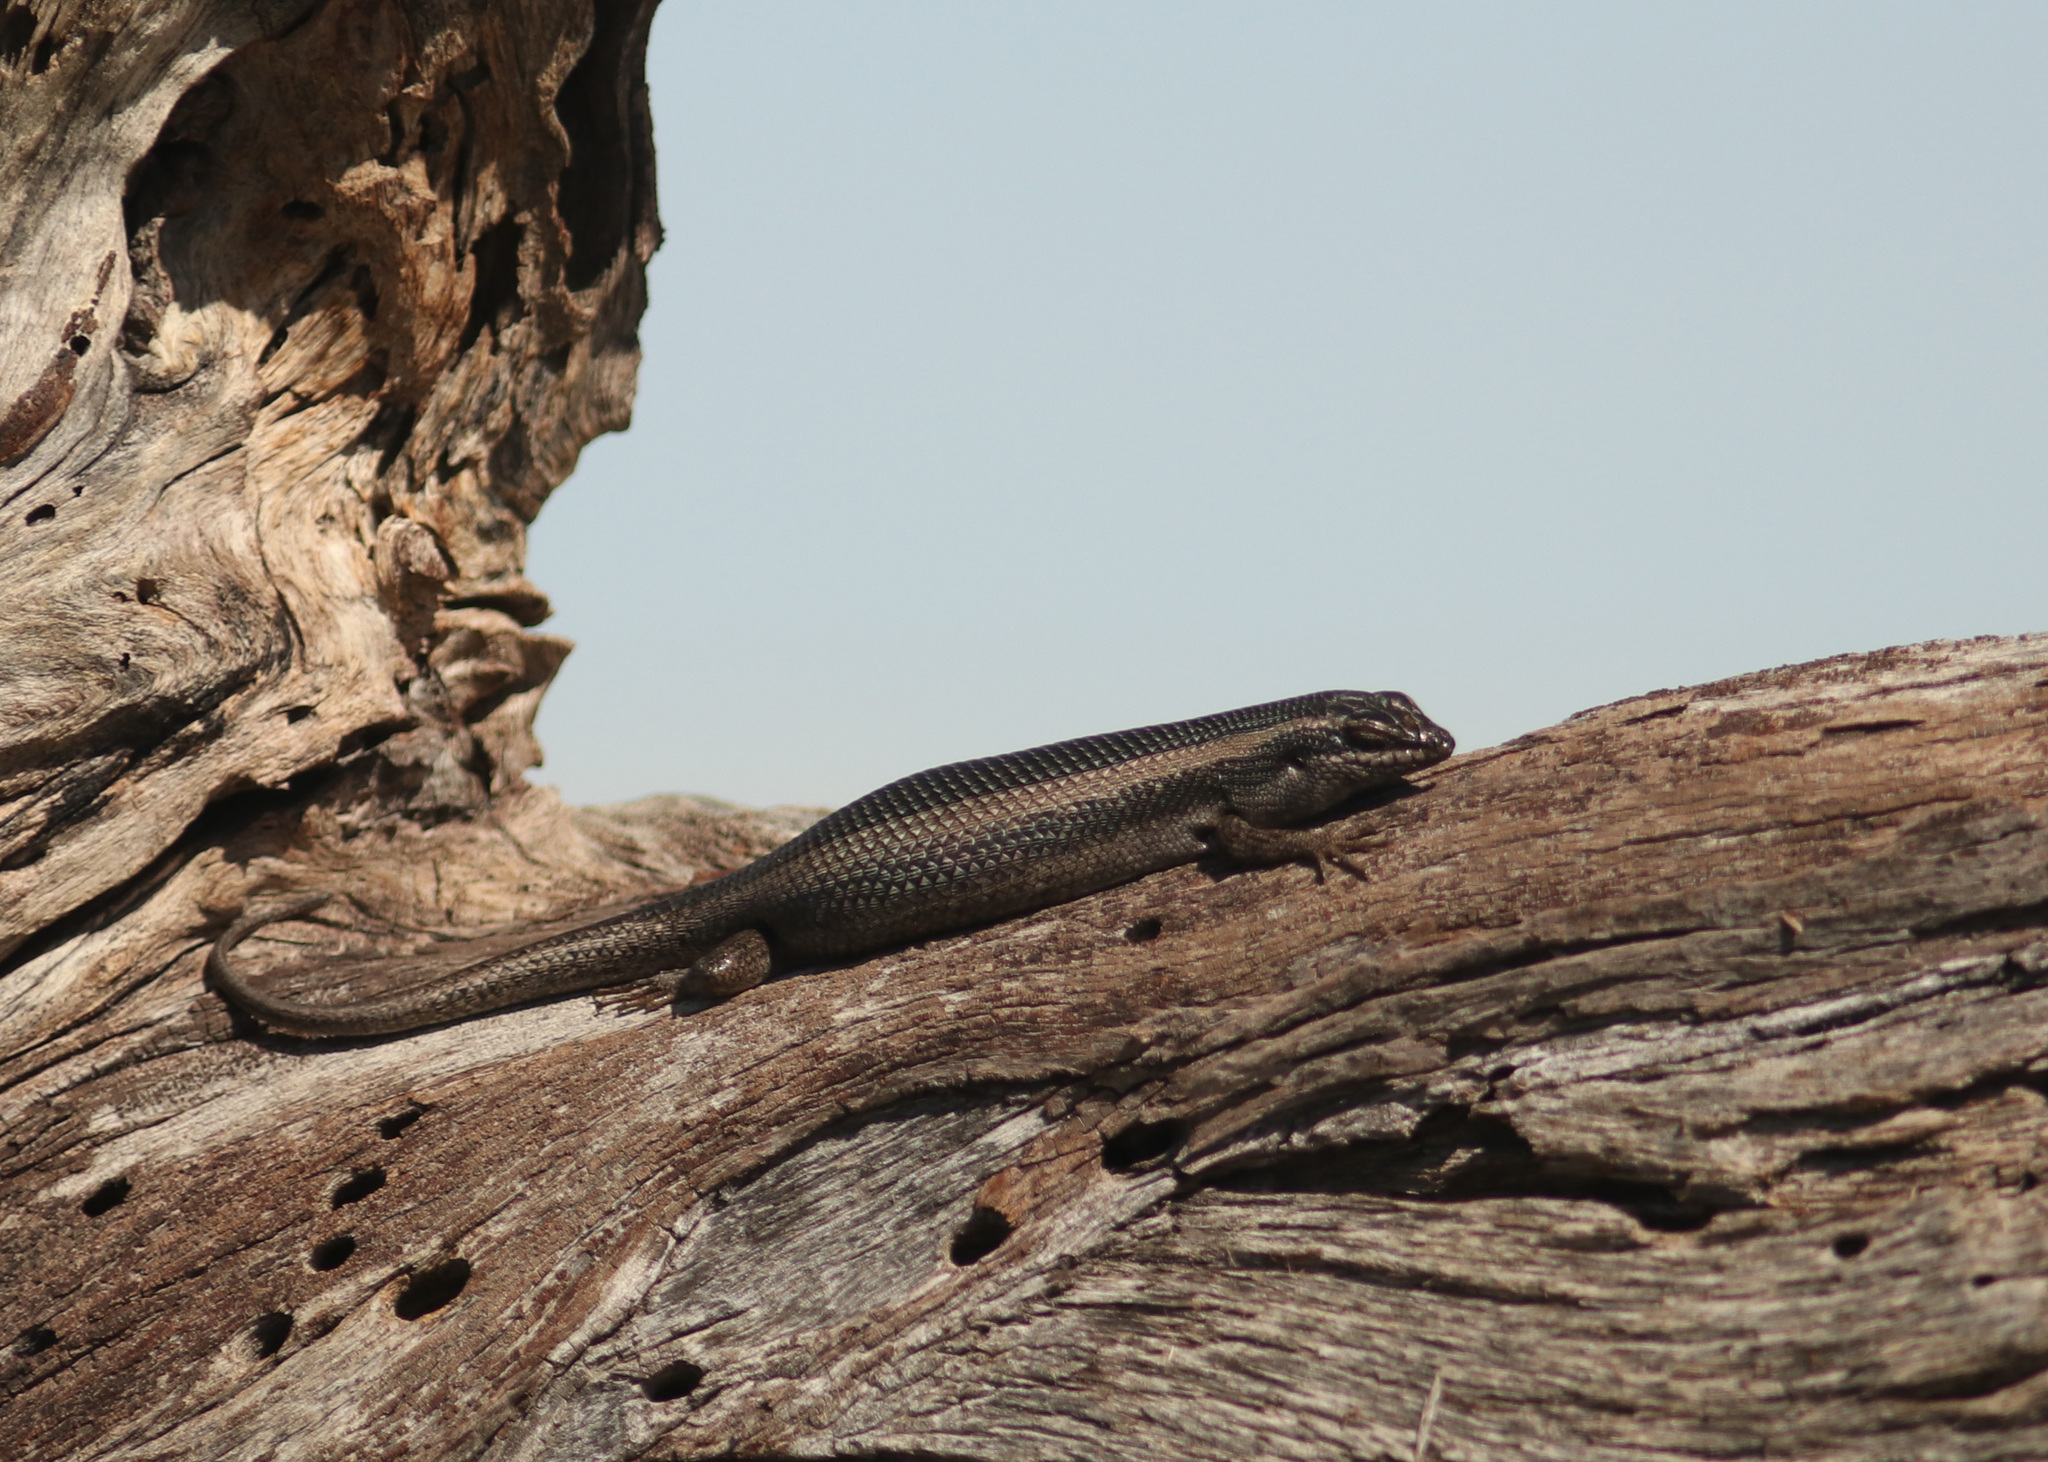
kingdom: Animalia
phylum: Chordata
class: Squamata
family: Scincidae
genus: Trachylepis
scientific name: Trachylepis spilogaster
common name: Kalahari tree skink
